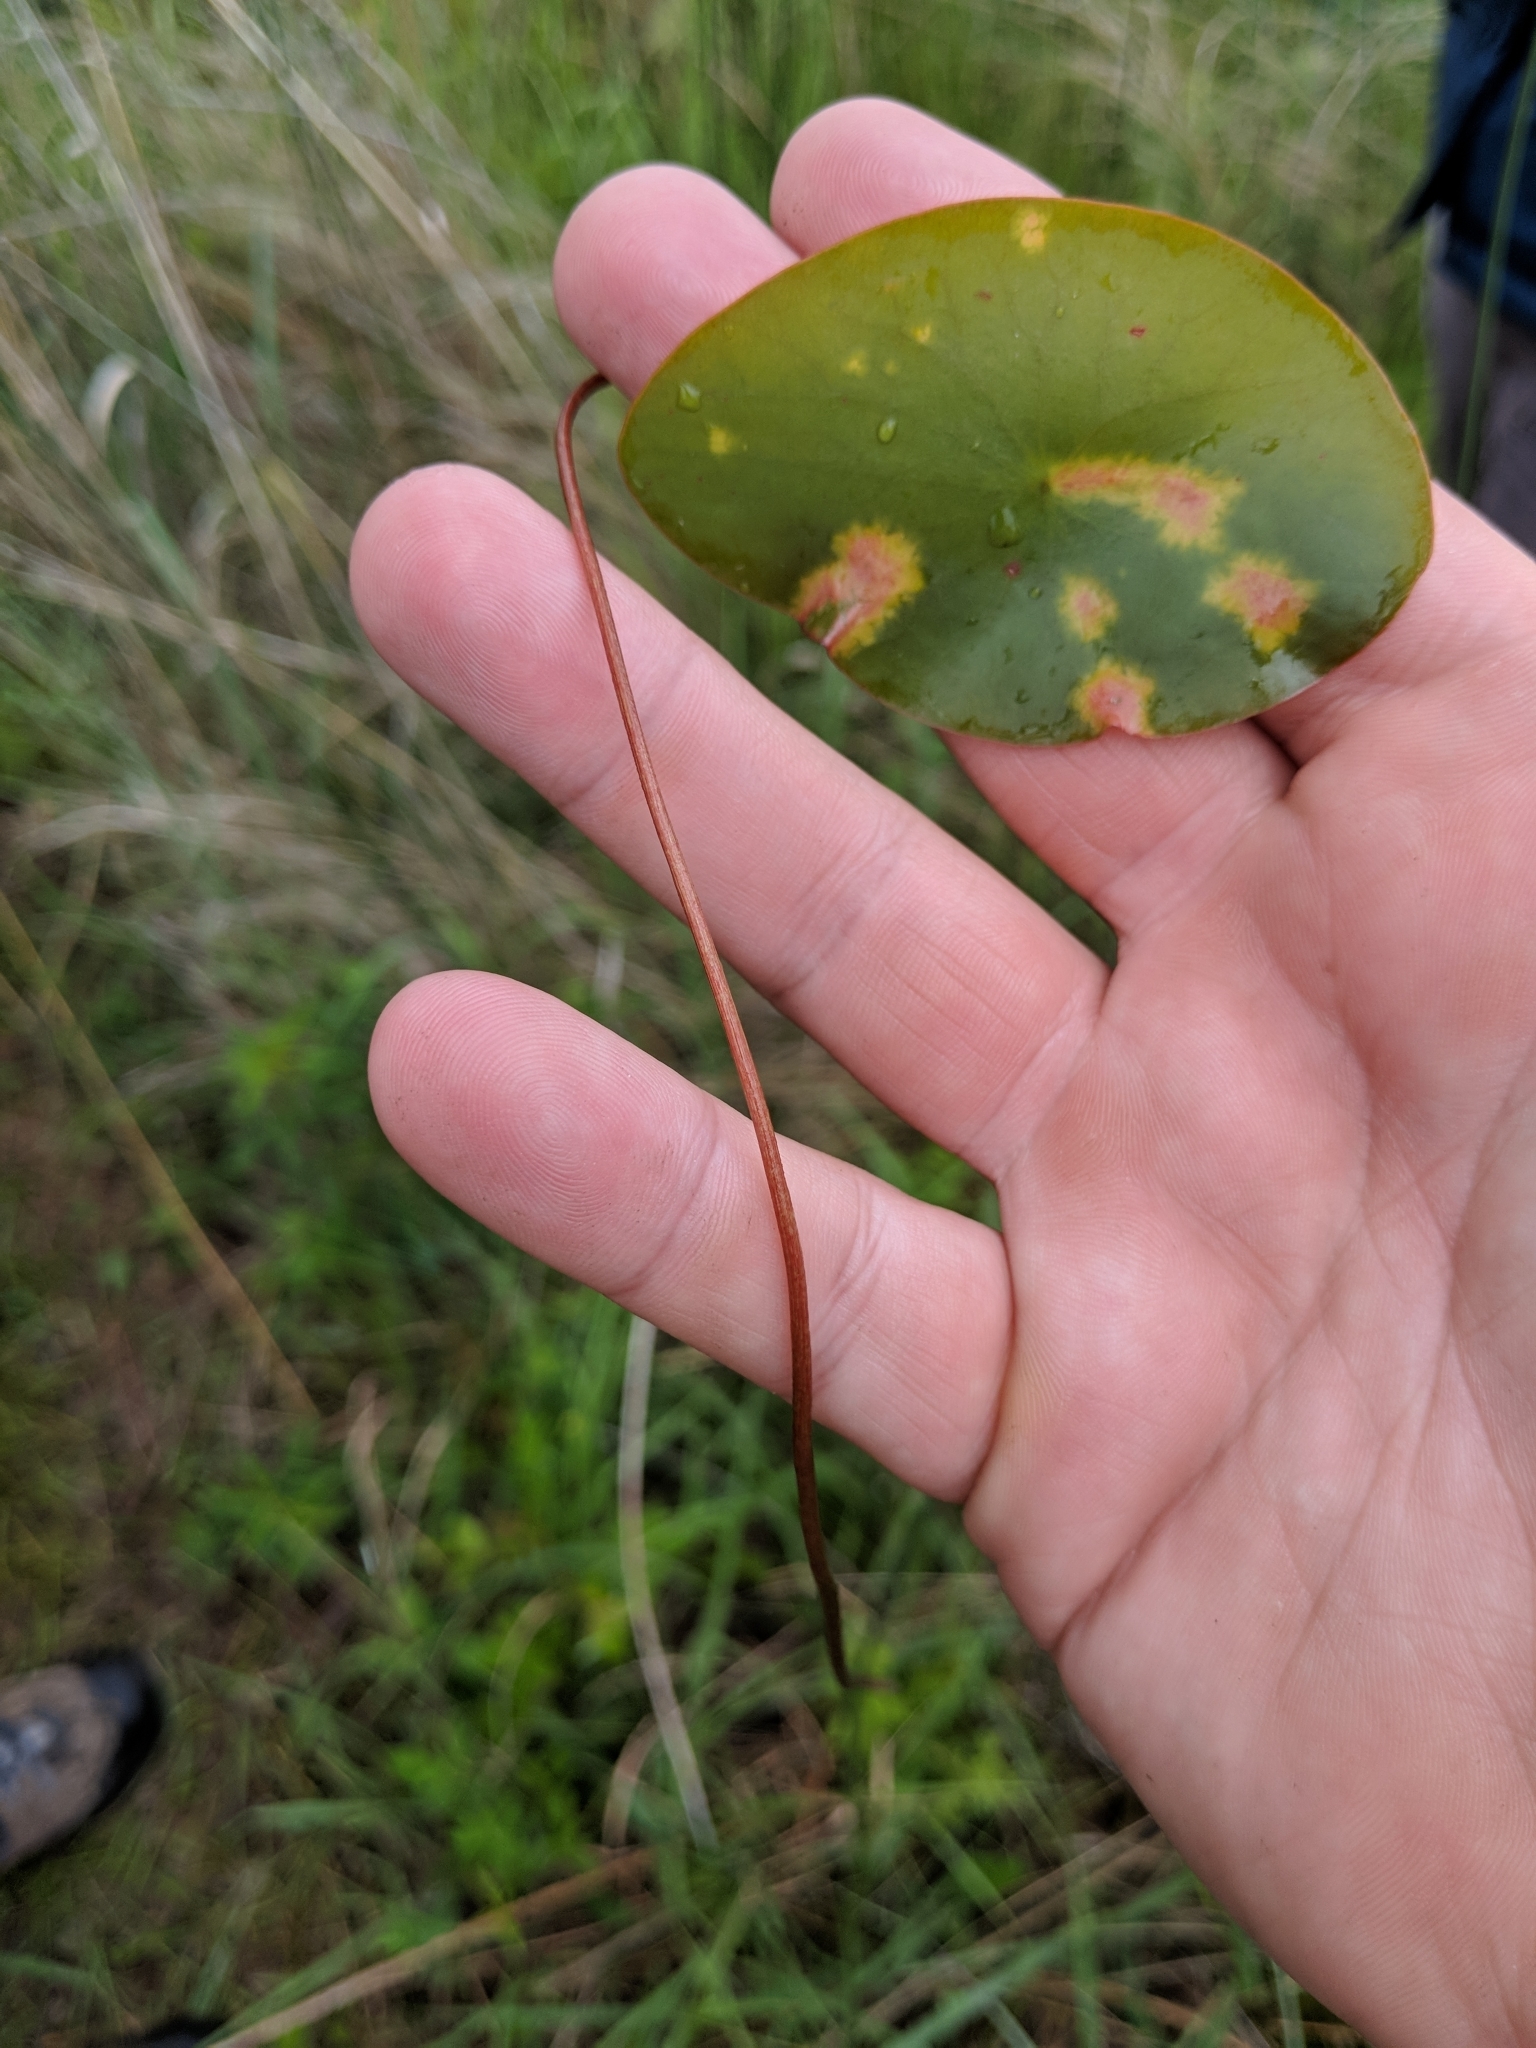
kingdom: Plantae
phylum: Tracheophyta
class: Magnoliopsida
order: Nymphaeales
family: Cabombaceae
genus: Brasenia
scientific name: Brasenia schreberi
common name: Water-shield
